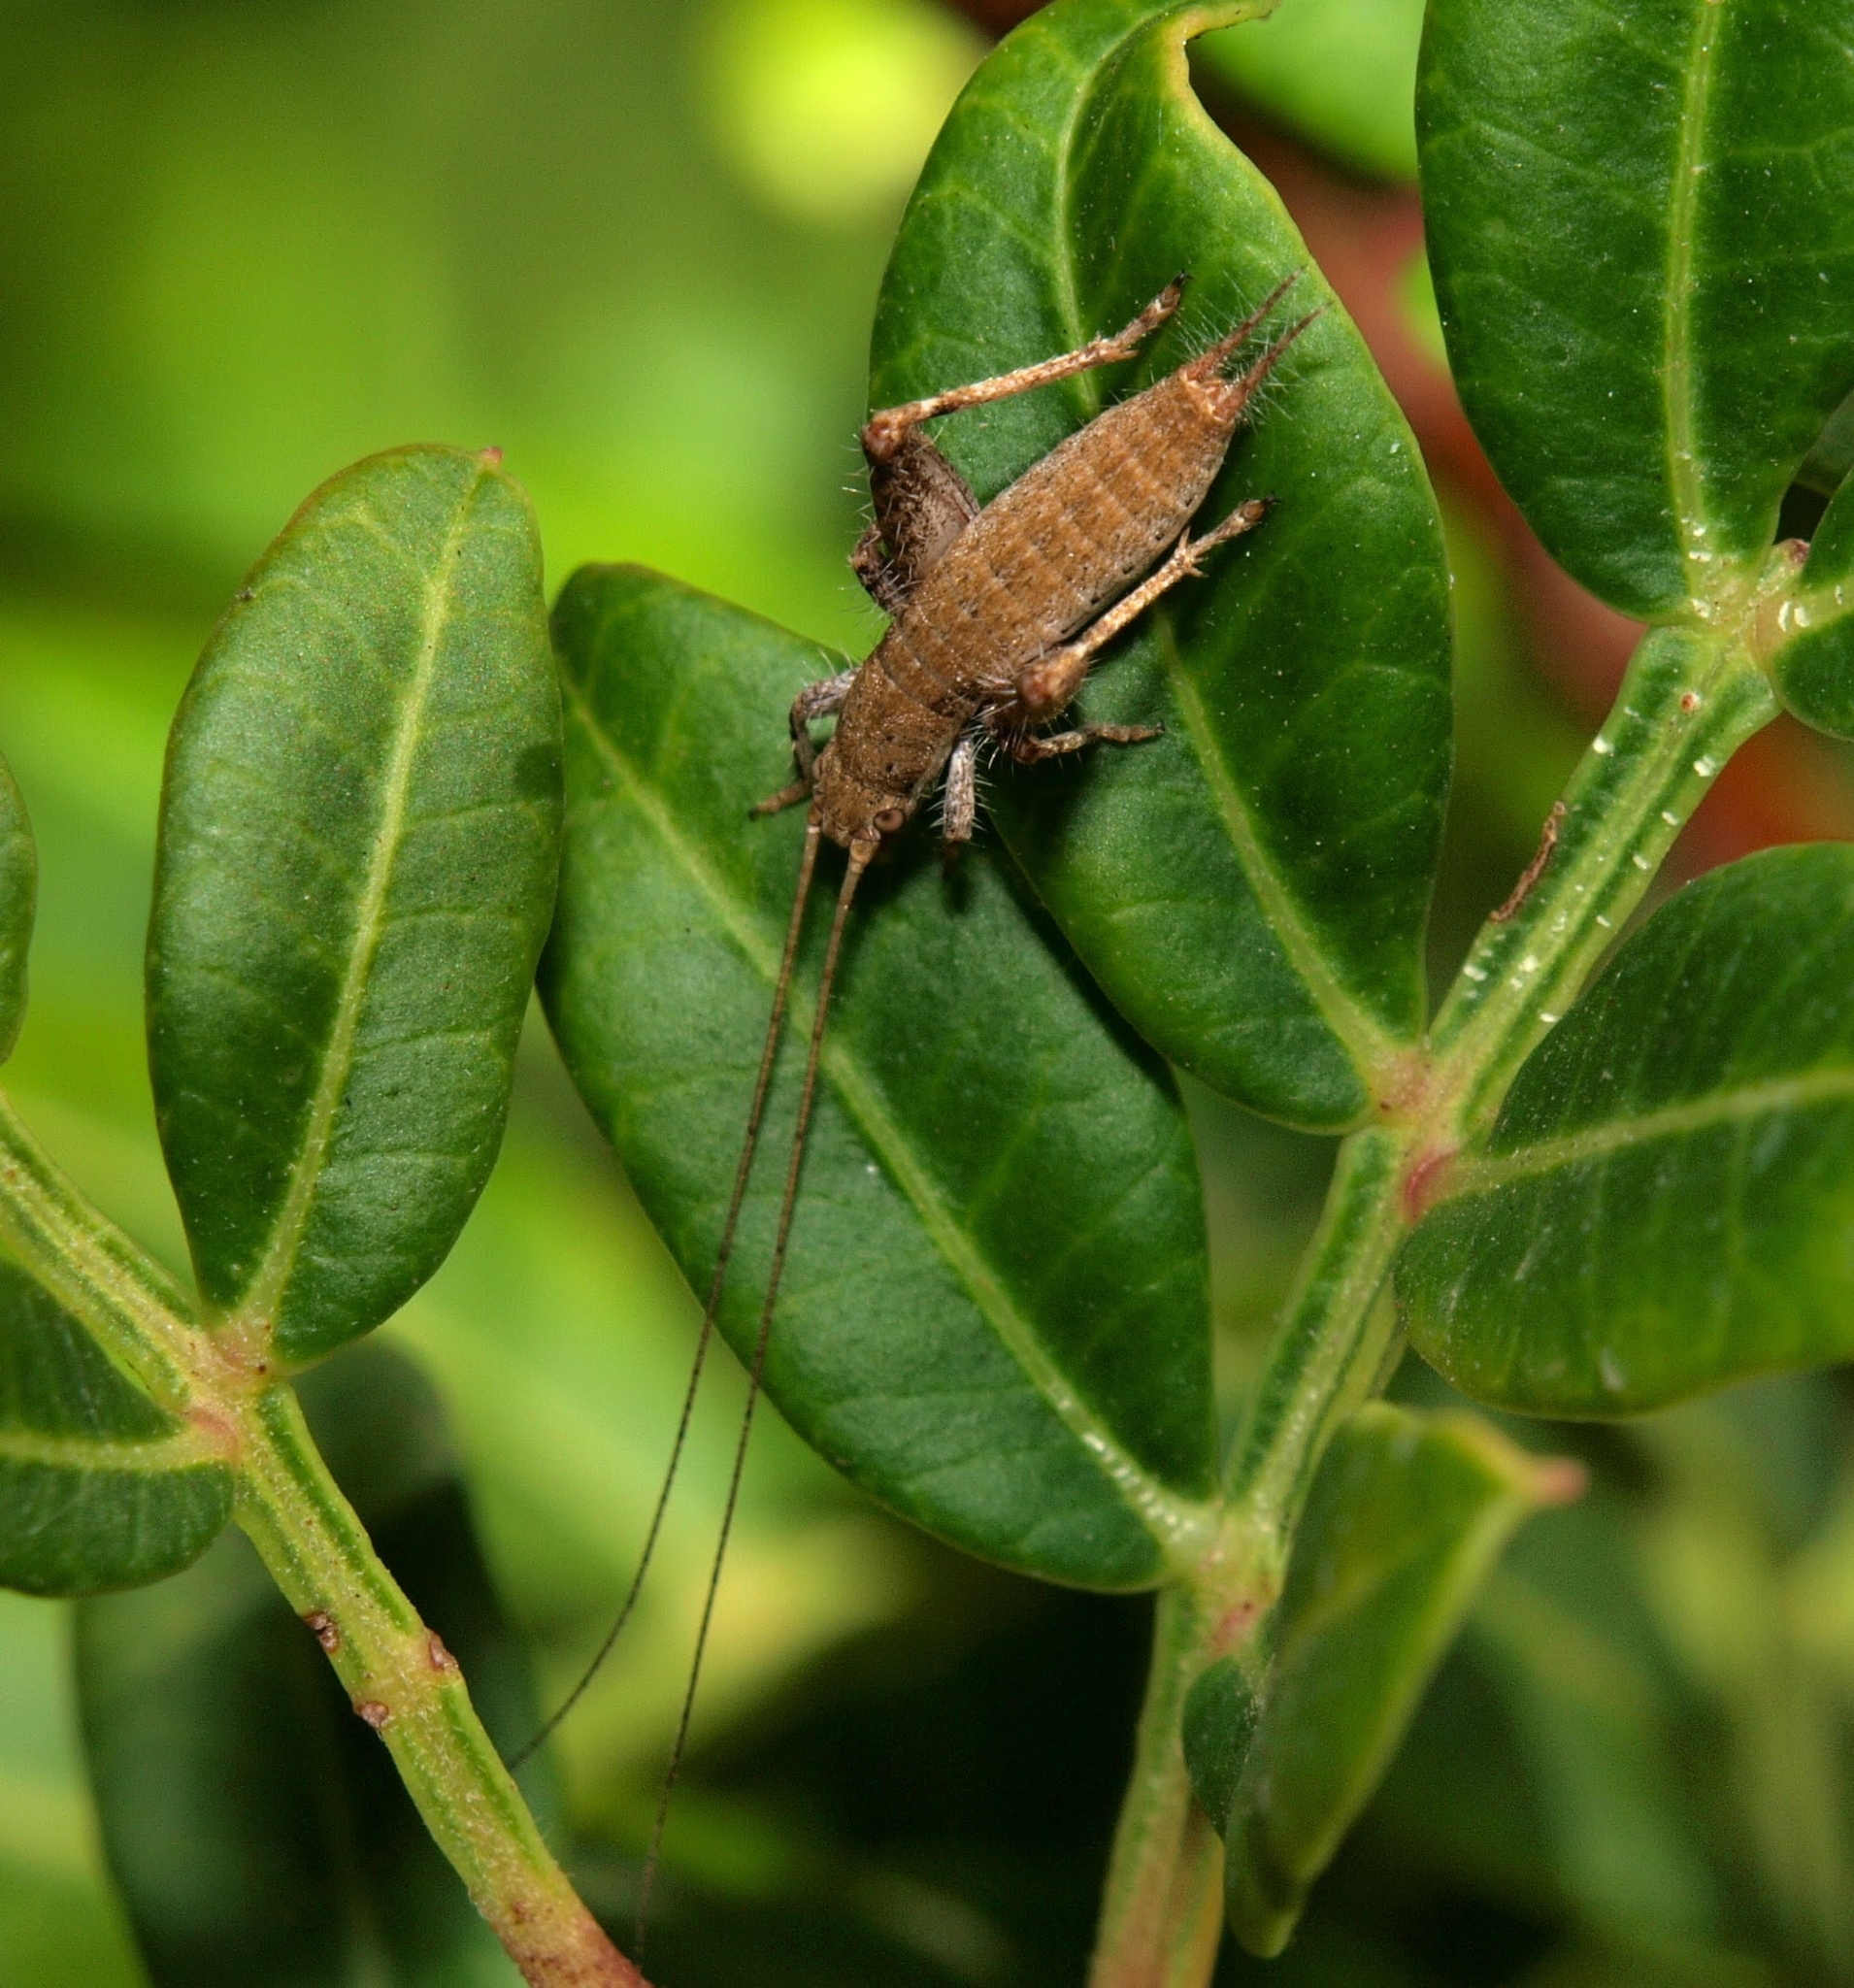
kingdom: Animalia
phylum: Arthropoda
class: Insecta
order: Orthoptera
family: Mogoplistidae
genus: Arachnocephalus
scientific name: Arachnocephalus vestitus
